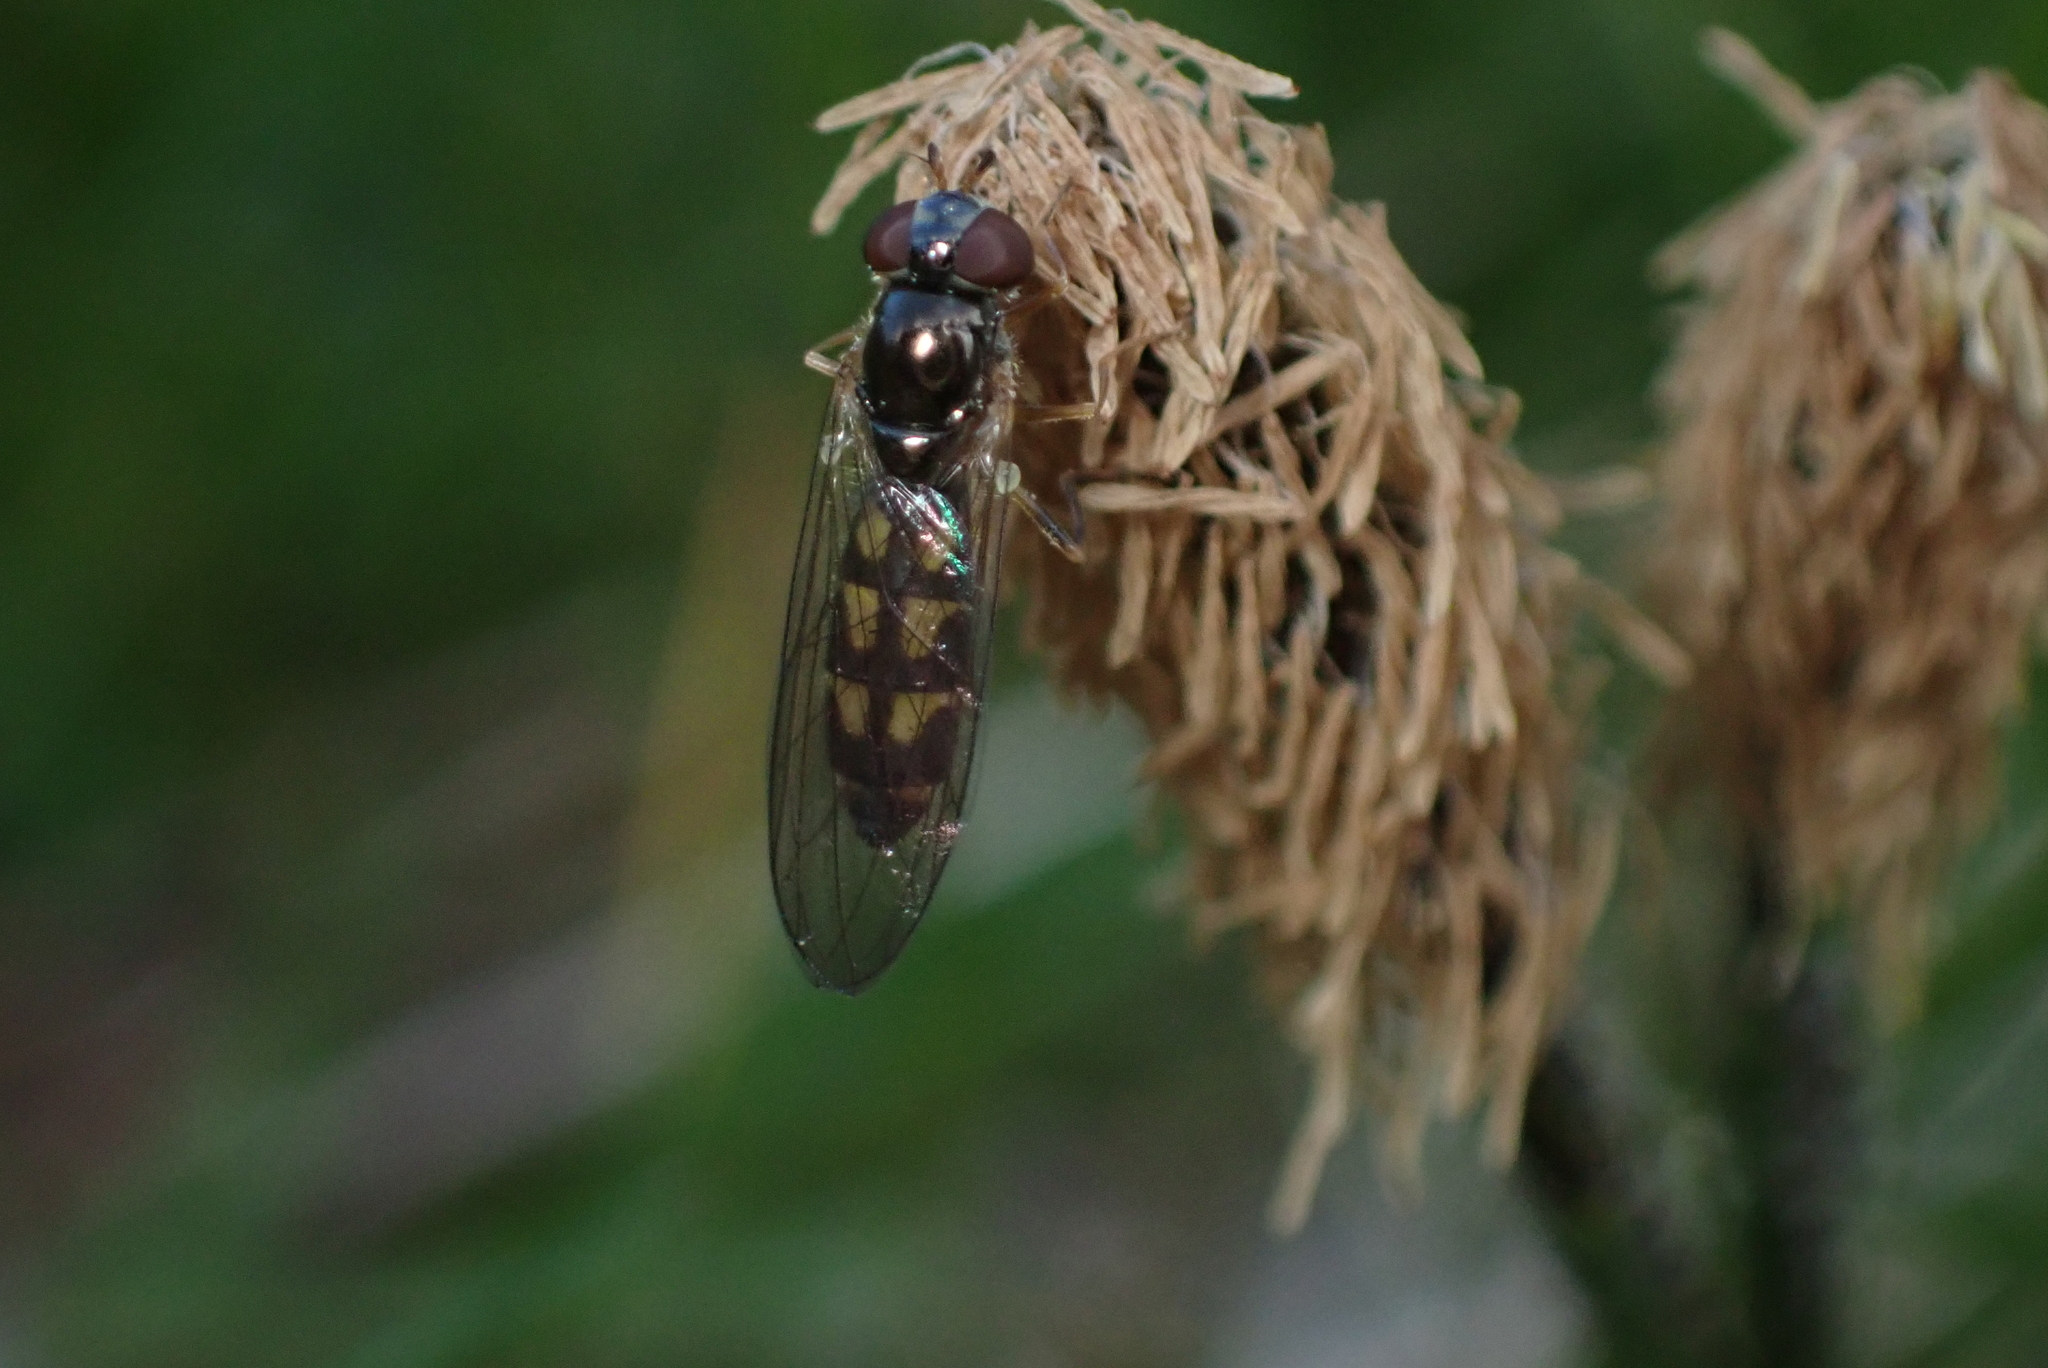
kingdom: Animalia
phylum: Arthropoda
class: Insecta
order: Diptera
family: Syrphidae
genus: Melanostoma
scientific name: Melanostoma scalare
